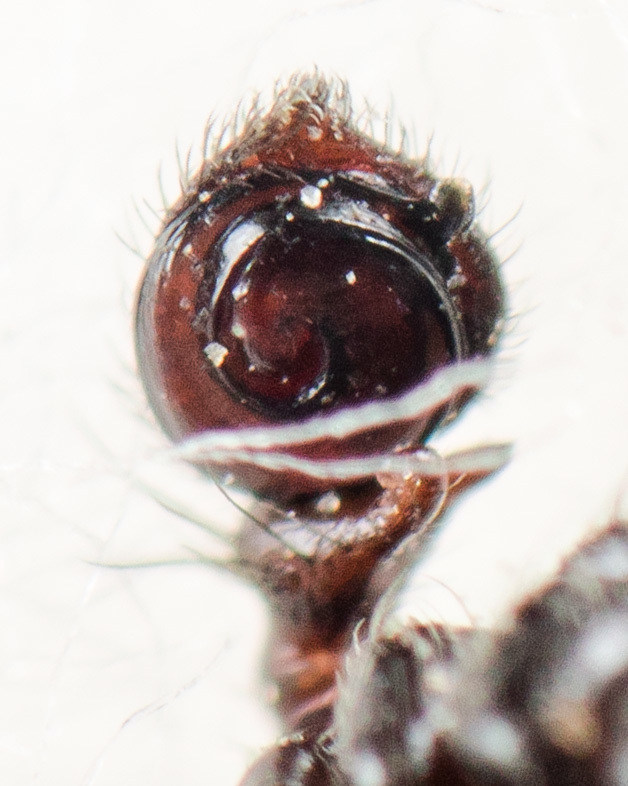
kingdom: Animalia
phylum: Arthropoda
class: Arachnida
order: Araneae
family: Thomisidae
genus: Synema
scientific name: Synema utotchkini
